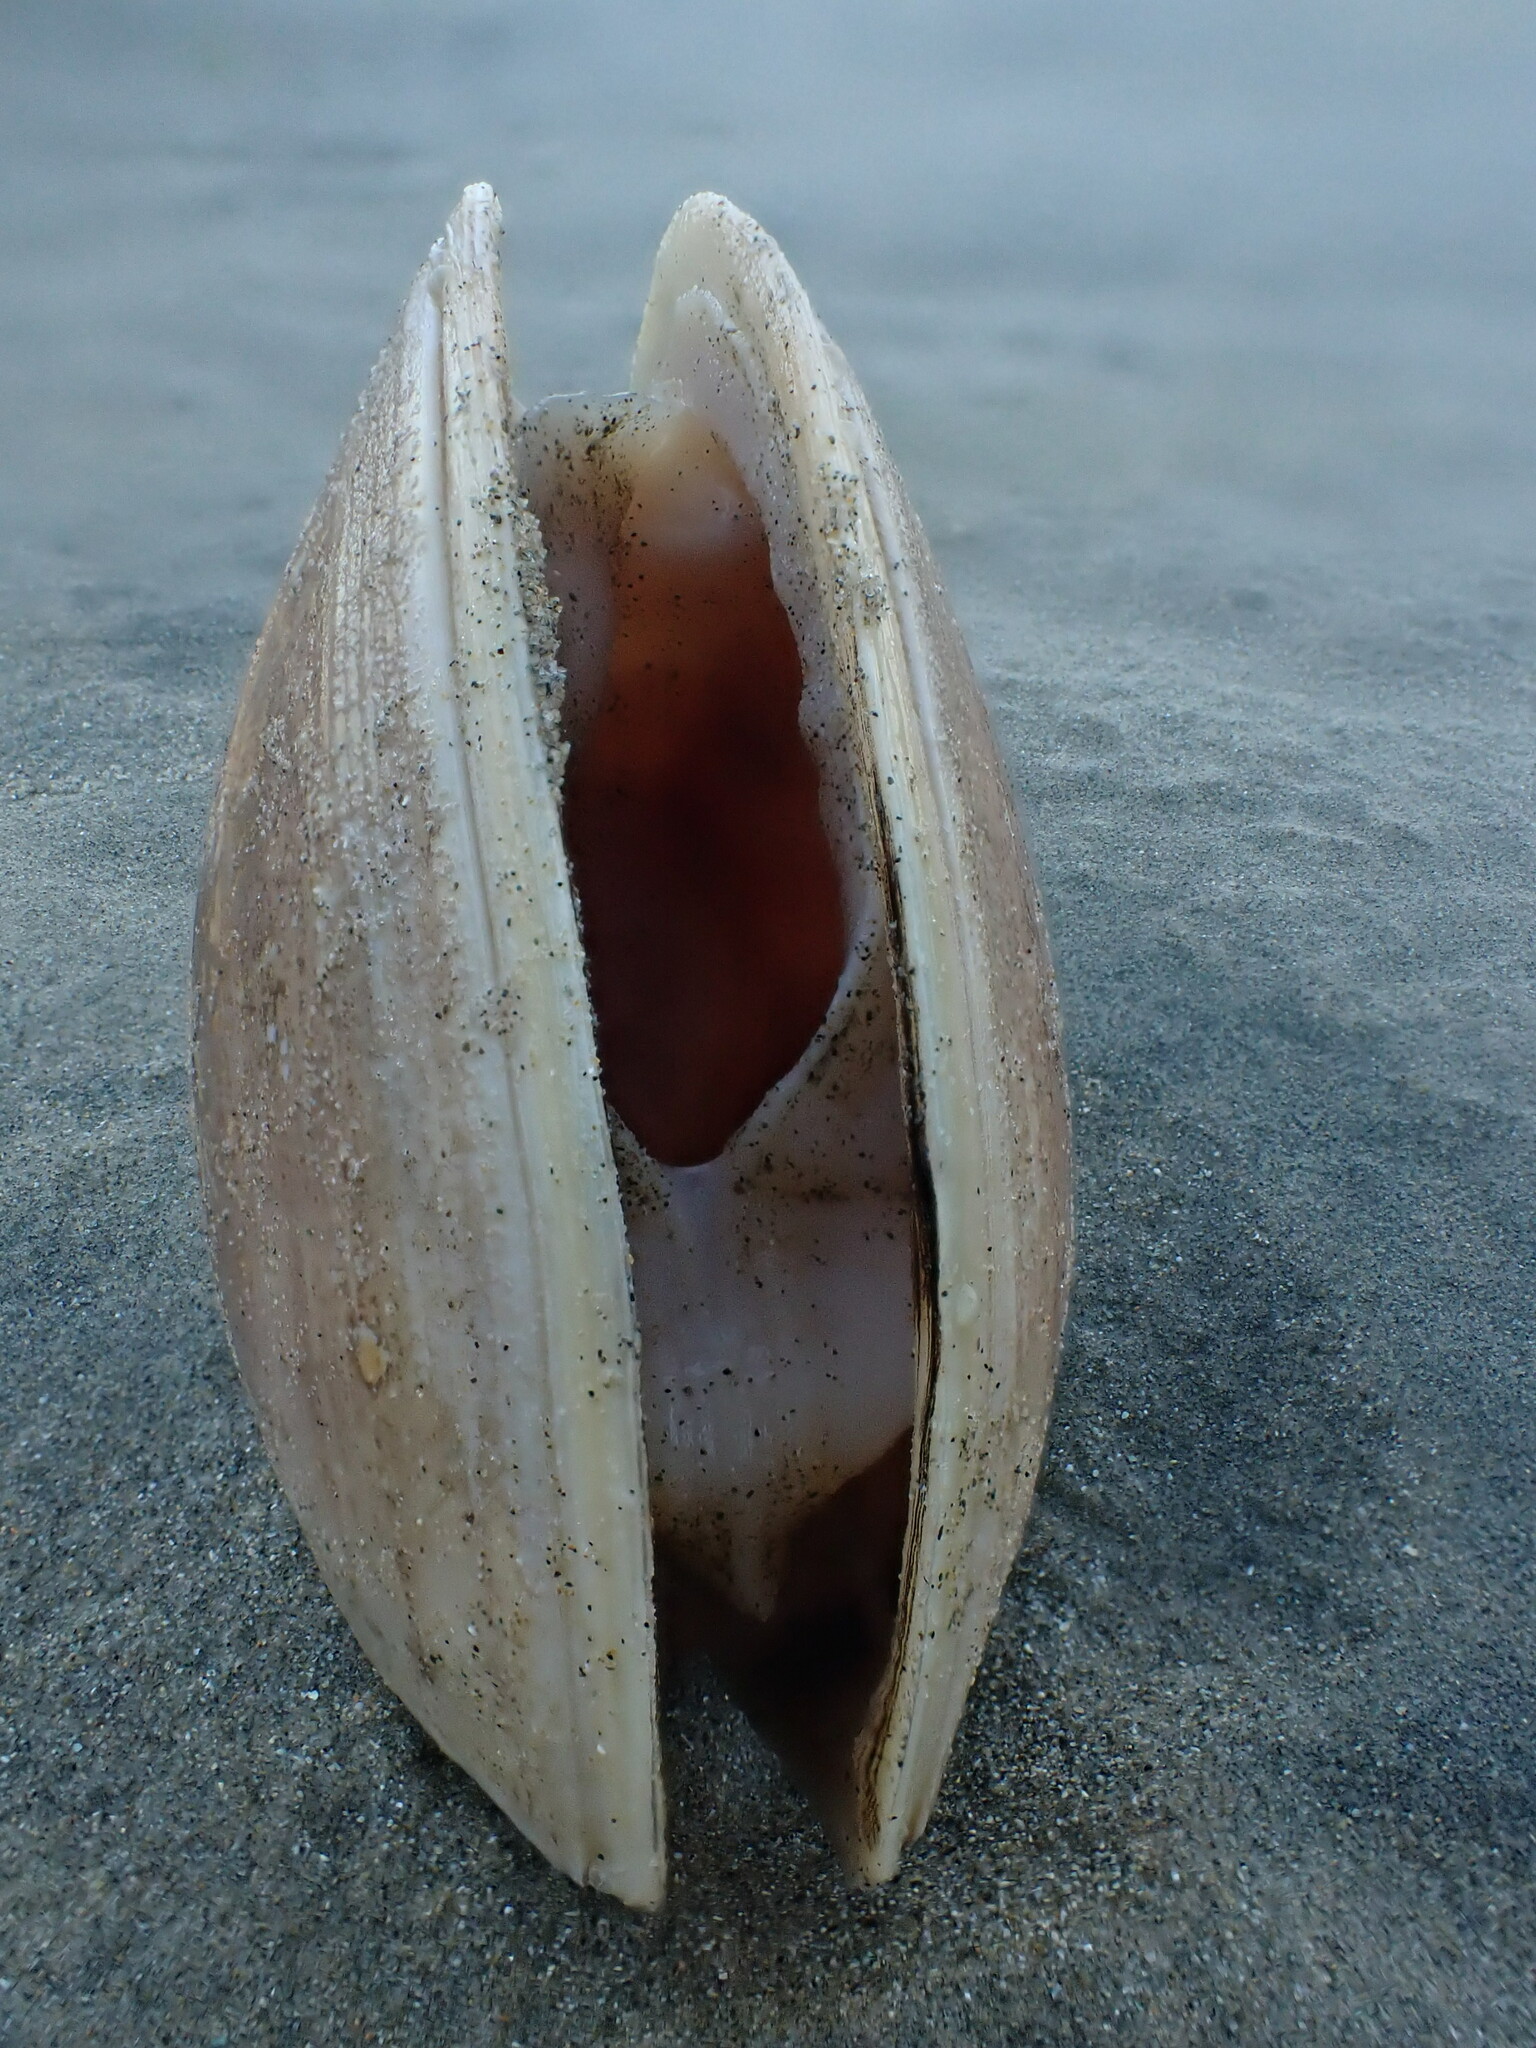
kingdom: Animalia
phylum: Mollusca
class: Bivalvia
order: Venerida
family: Mactridae
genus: Crassula
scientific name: Crassula aequilatera
